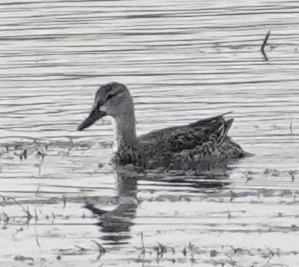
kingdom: Animalia
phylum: Chordata
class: Aves
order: Anseriformes
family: Anatidae
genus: Spatula
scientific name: Spatula discors
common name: Blue-winged teal
